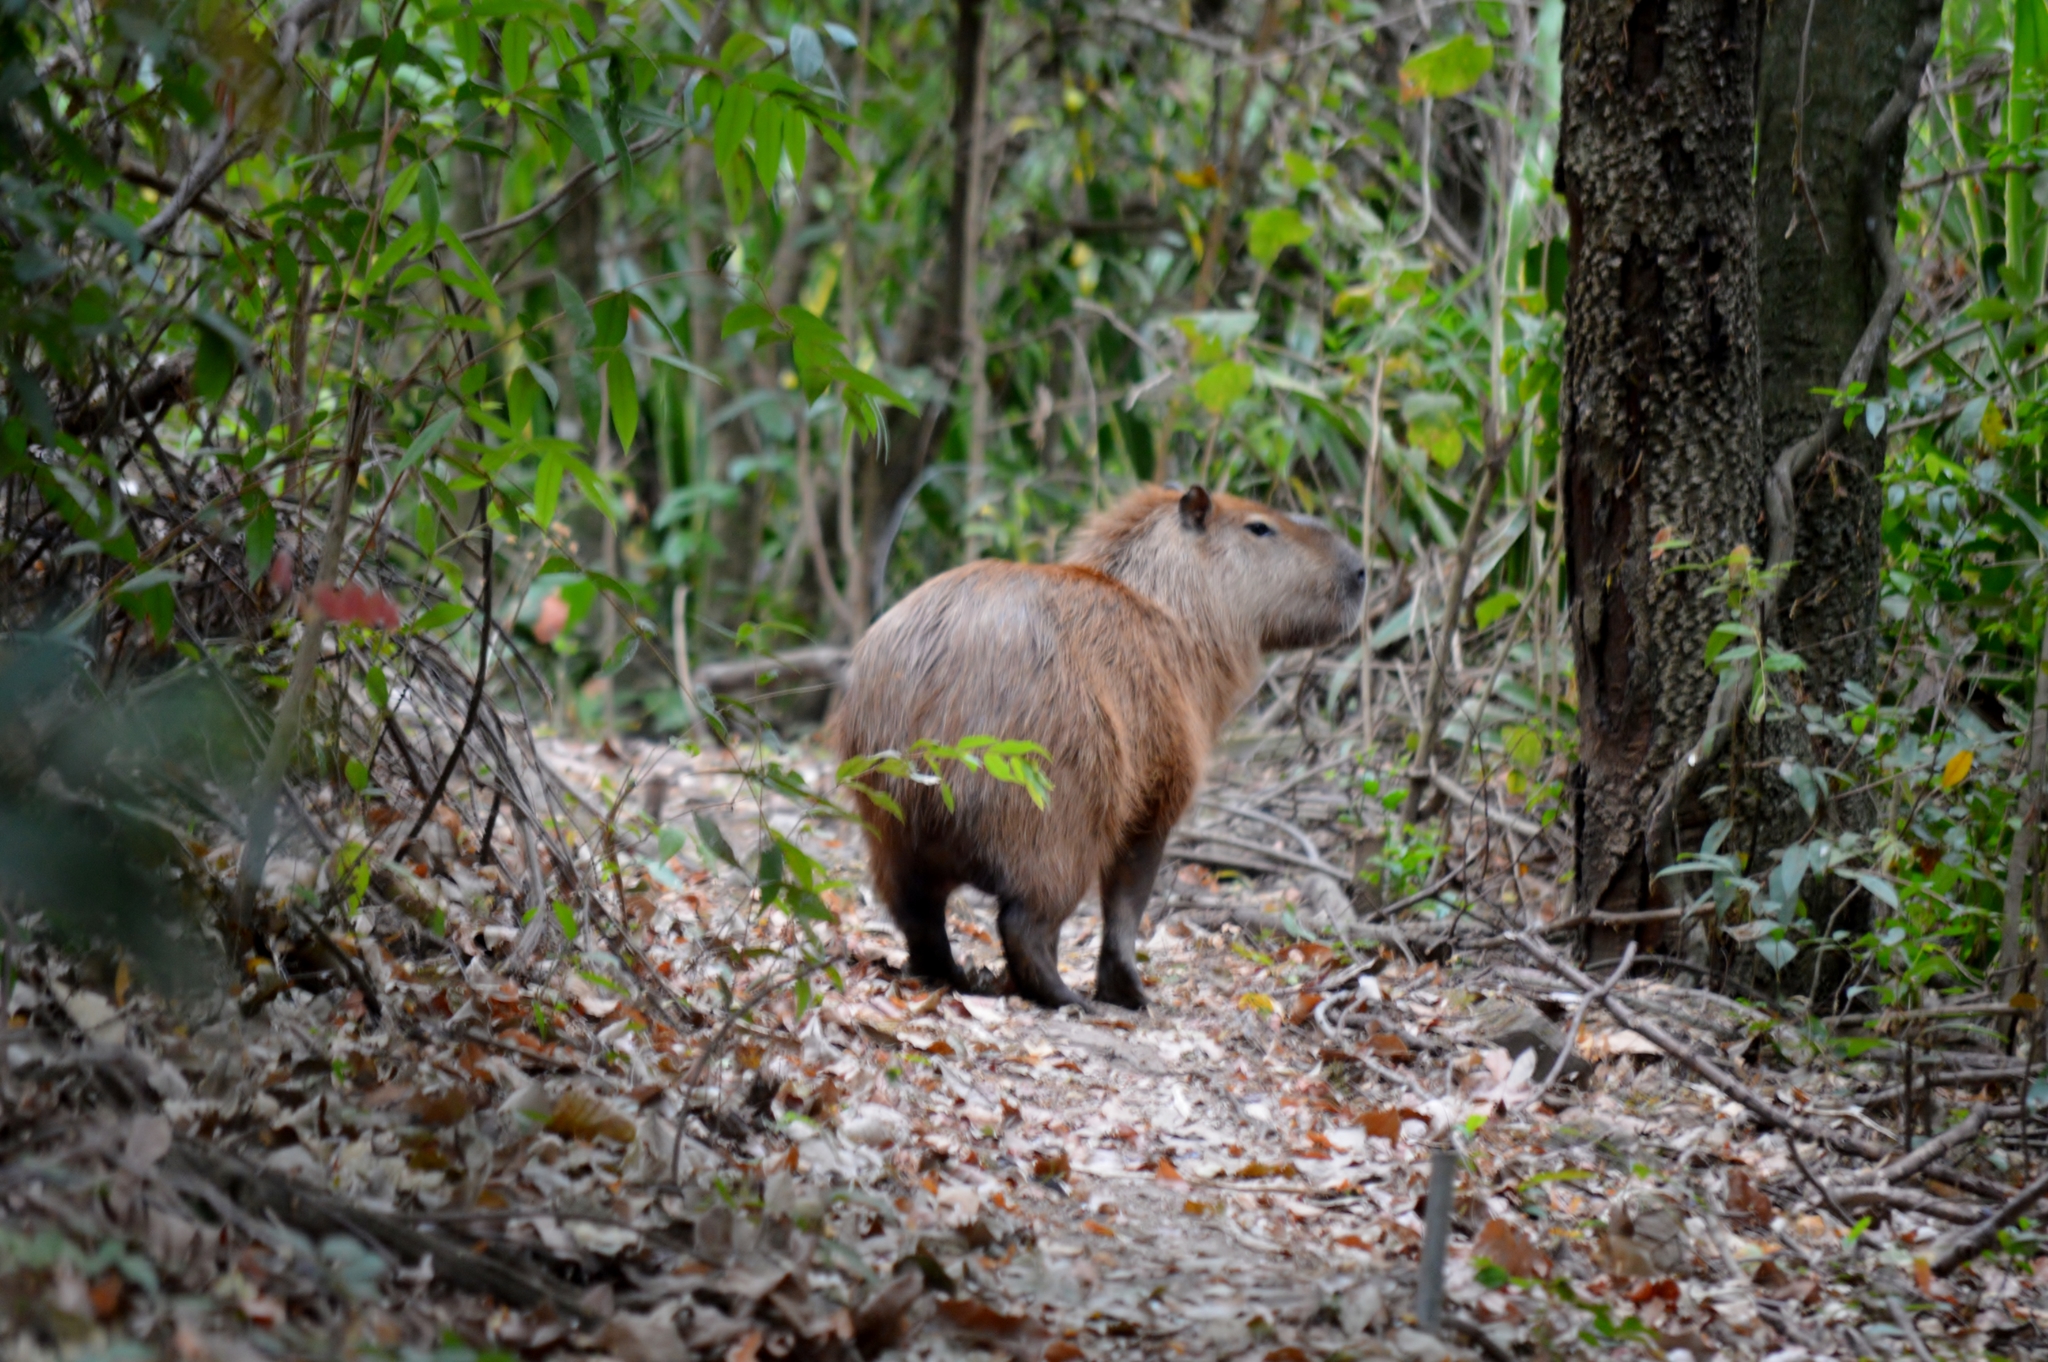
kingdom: Animalia
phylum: Chordata
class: Mammalia
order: Rodentia
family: Caviidae
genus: Hydrochoerus
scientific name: Hydrochoerus hydrochaeris
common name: Capybara
